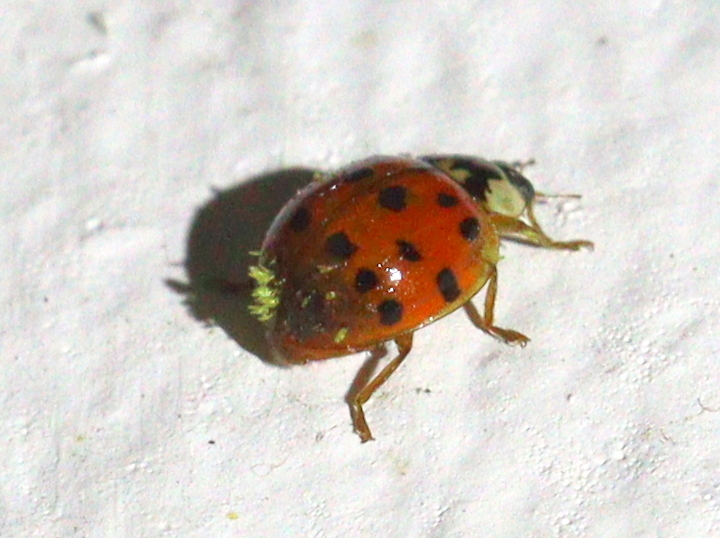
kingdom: Animalia
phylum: Arthropoda
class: Insecta
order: Coleoptera
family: Coccinellidae
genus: Harmonia
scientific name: Harmonia axyridis
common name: Harlequin ladybird
